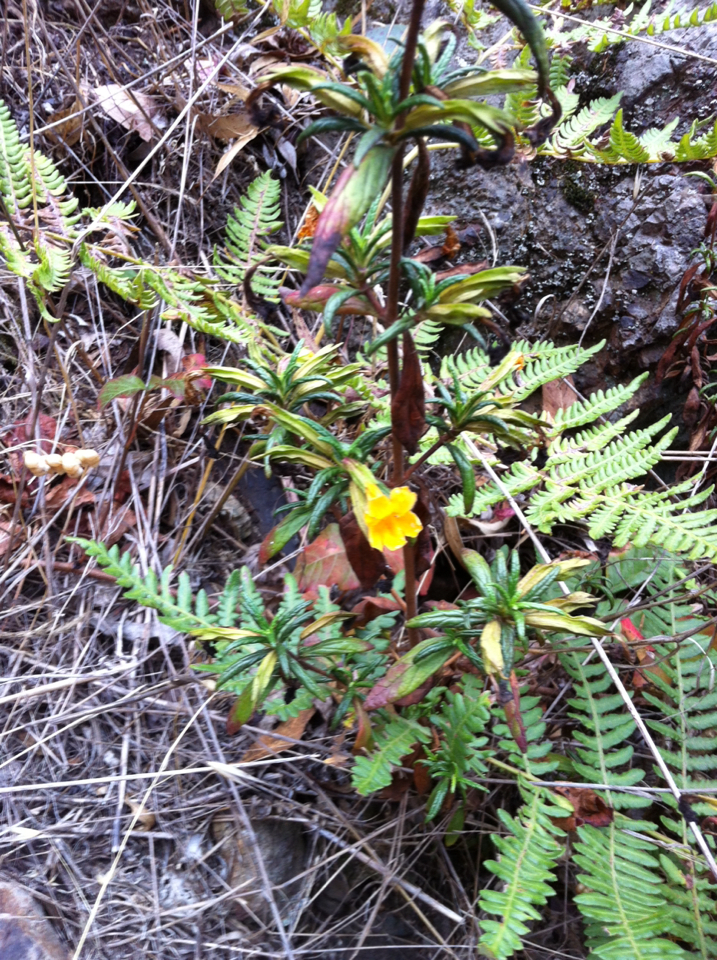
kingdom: Plantae
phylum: Tracheophyta
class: Magnoliopsida
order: Lamiales
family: Phrymaceae
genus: Diplacus
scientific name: Diplacus aurantiacus
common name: Bush monkey-flower
